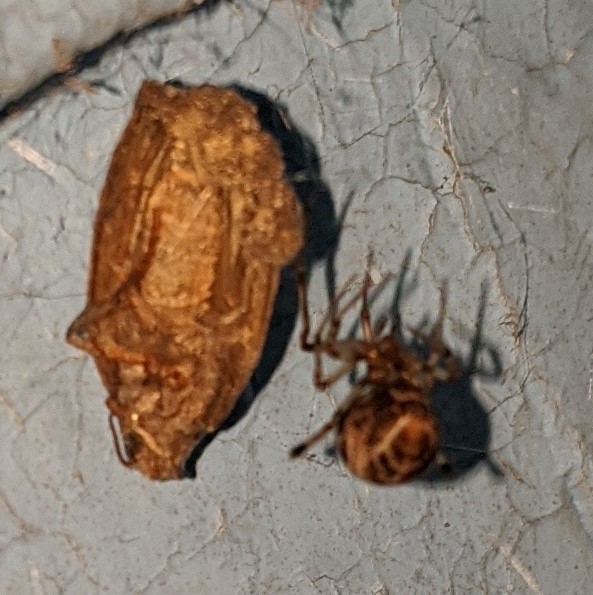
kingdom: Animalia
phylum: Arthropoda
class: Arachnida
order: Araneae
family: Theridiidae
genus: Parasteatoda
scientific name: Parasteatoda tepidariorum
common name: Common house spider
